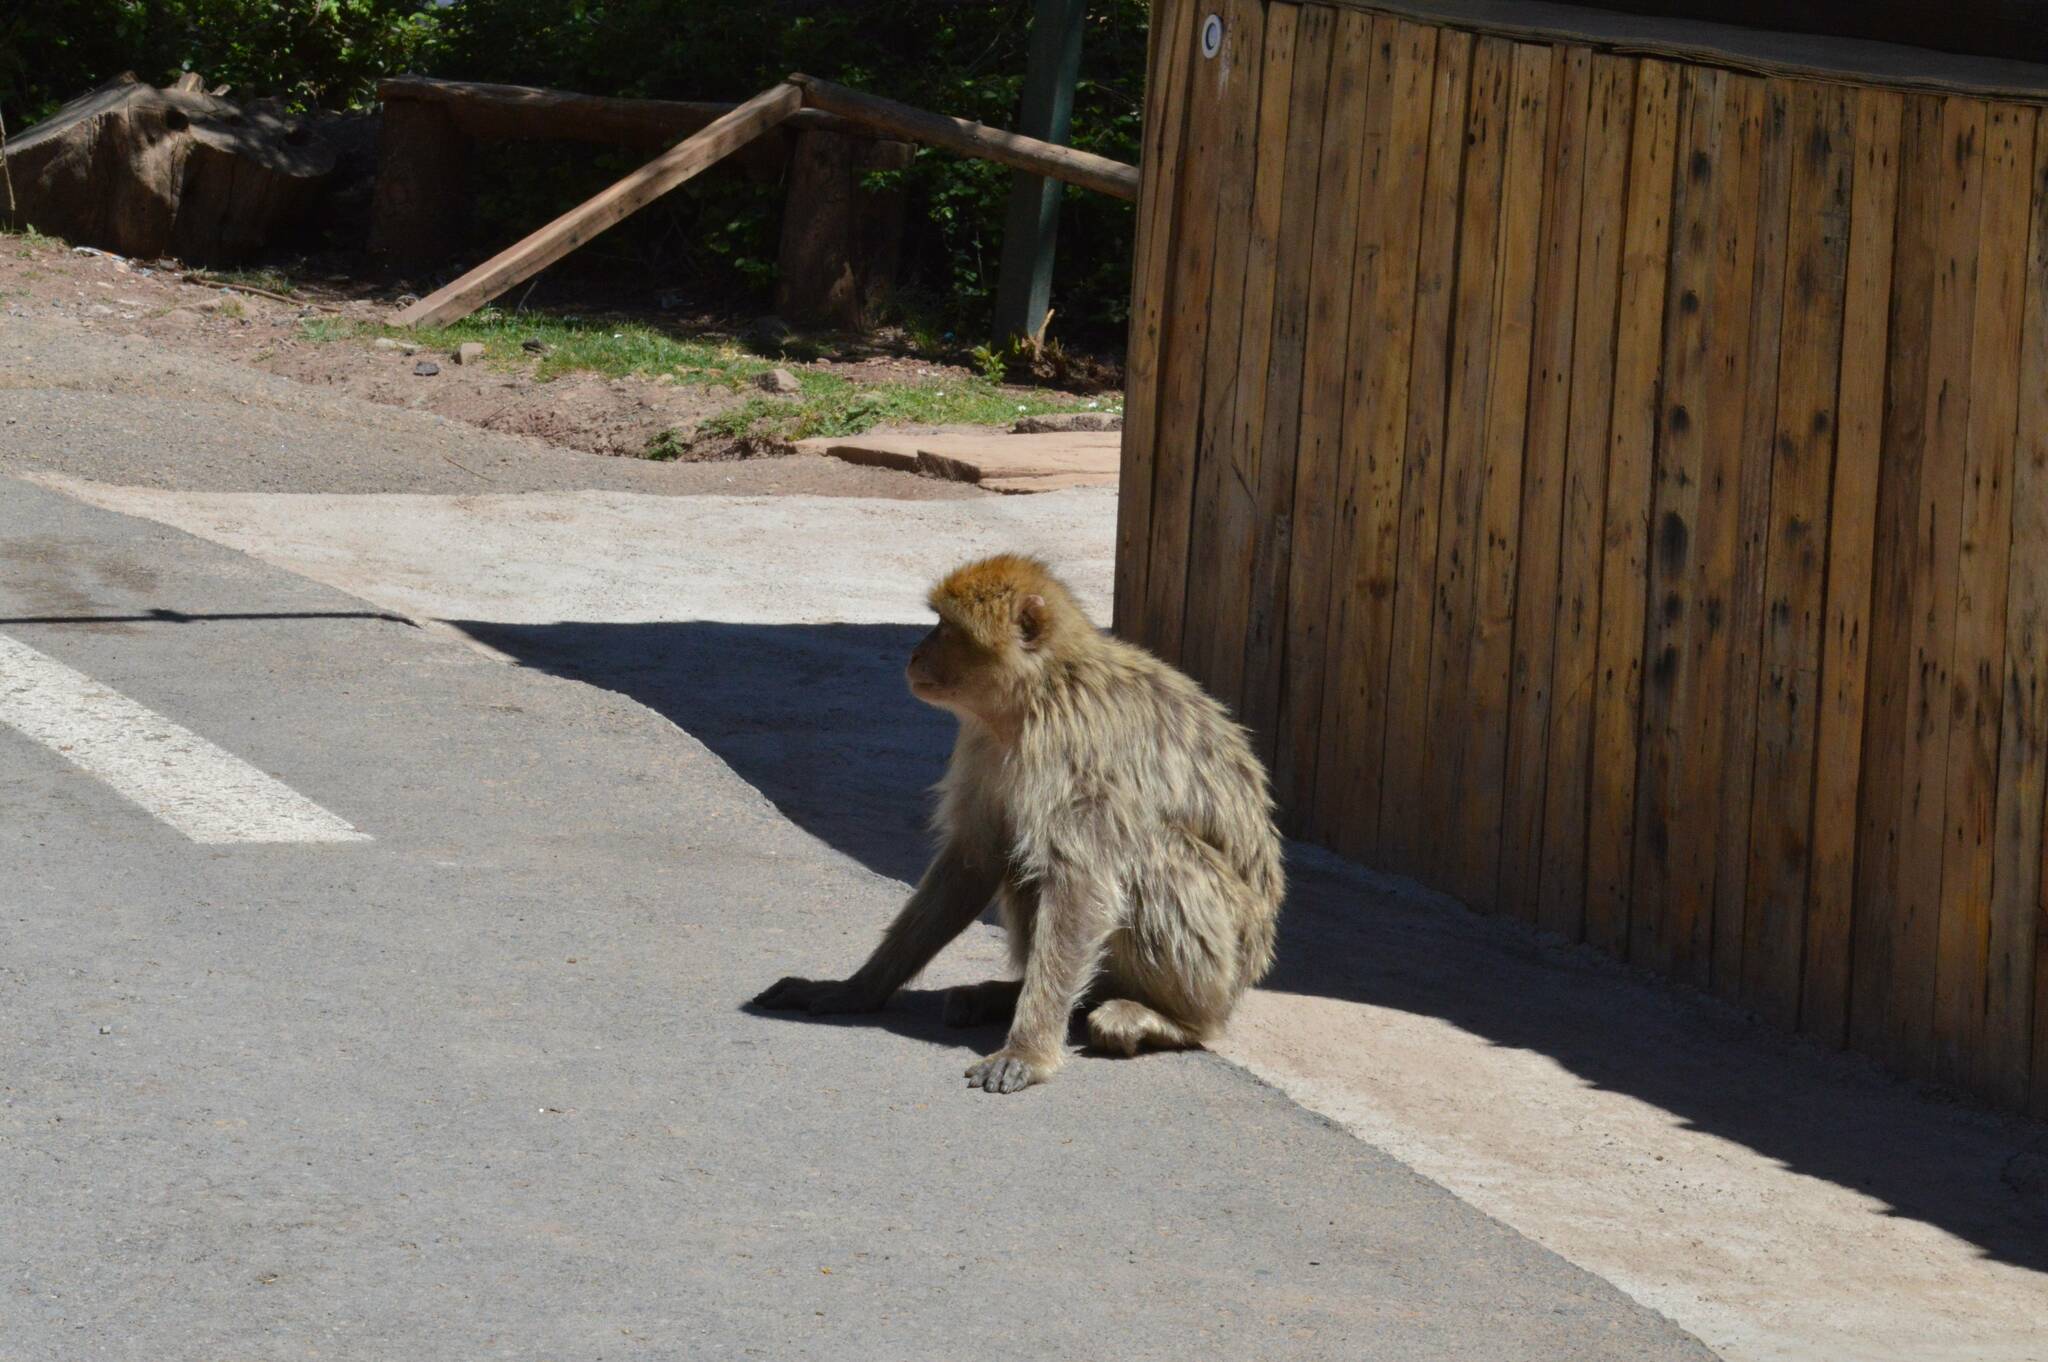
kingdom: Animalia
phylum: Chordata
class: Mammalia
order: Primates
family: Cercopithecidae
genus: Macaca
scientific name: Macaca sylvanus
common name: Barbary macaque
